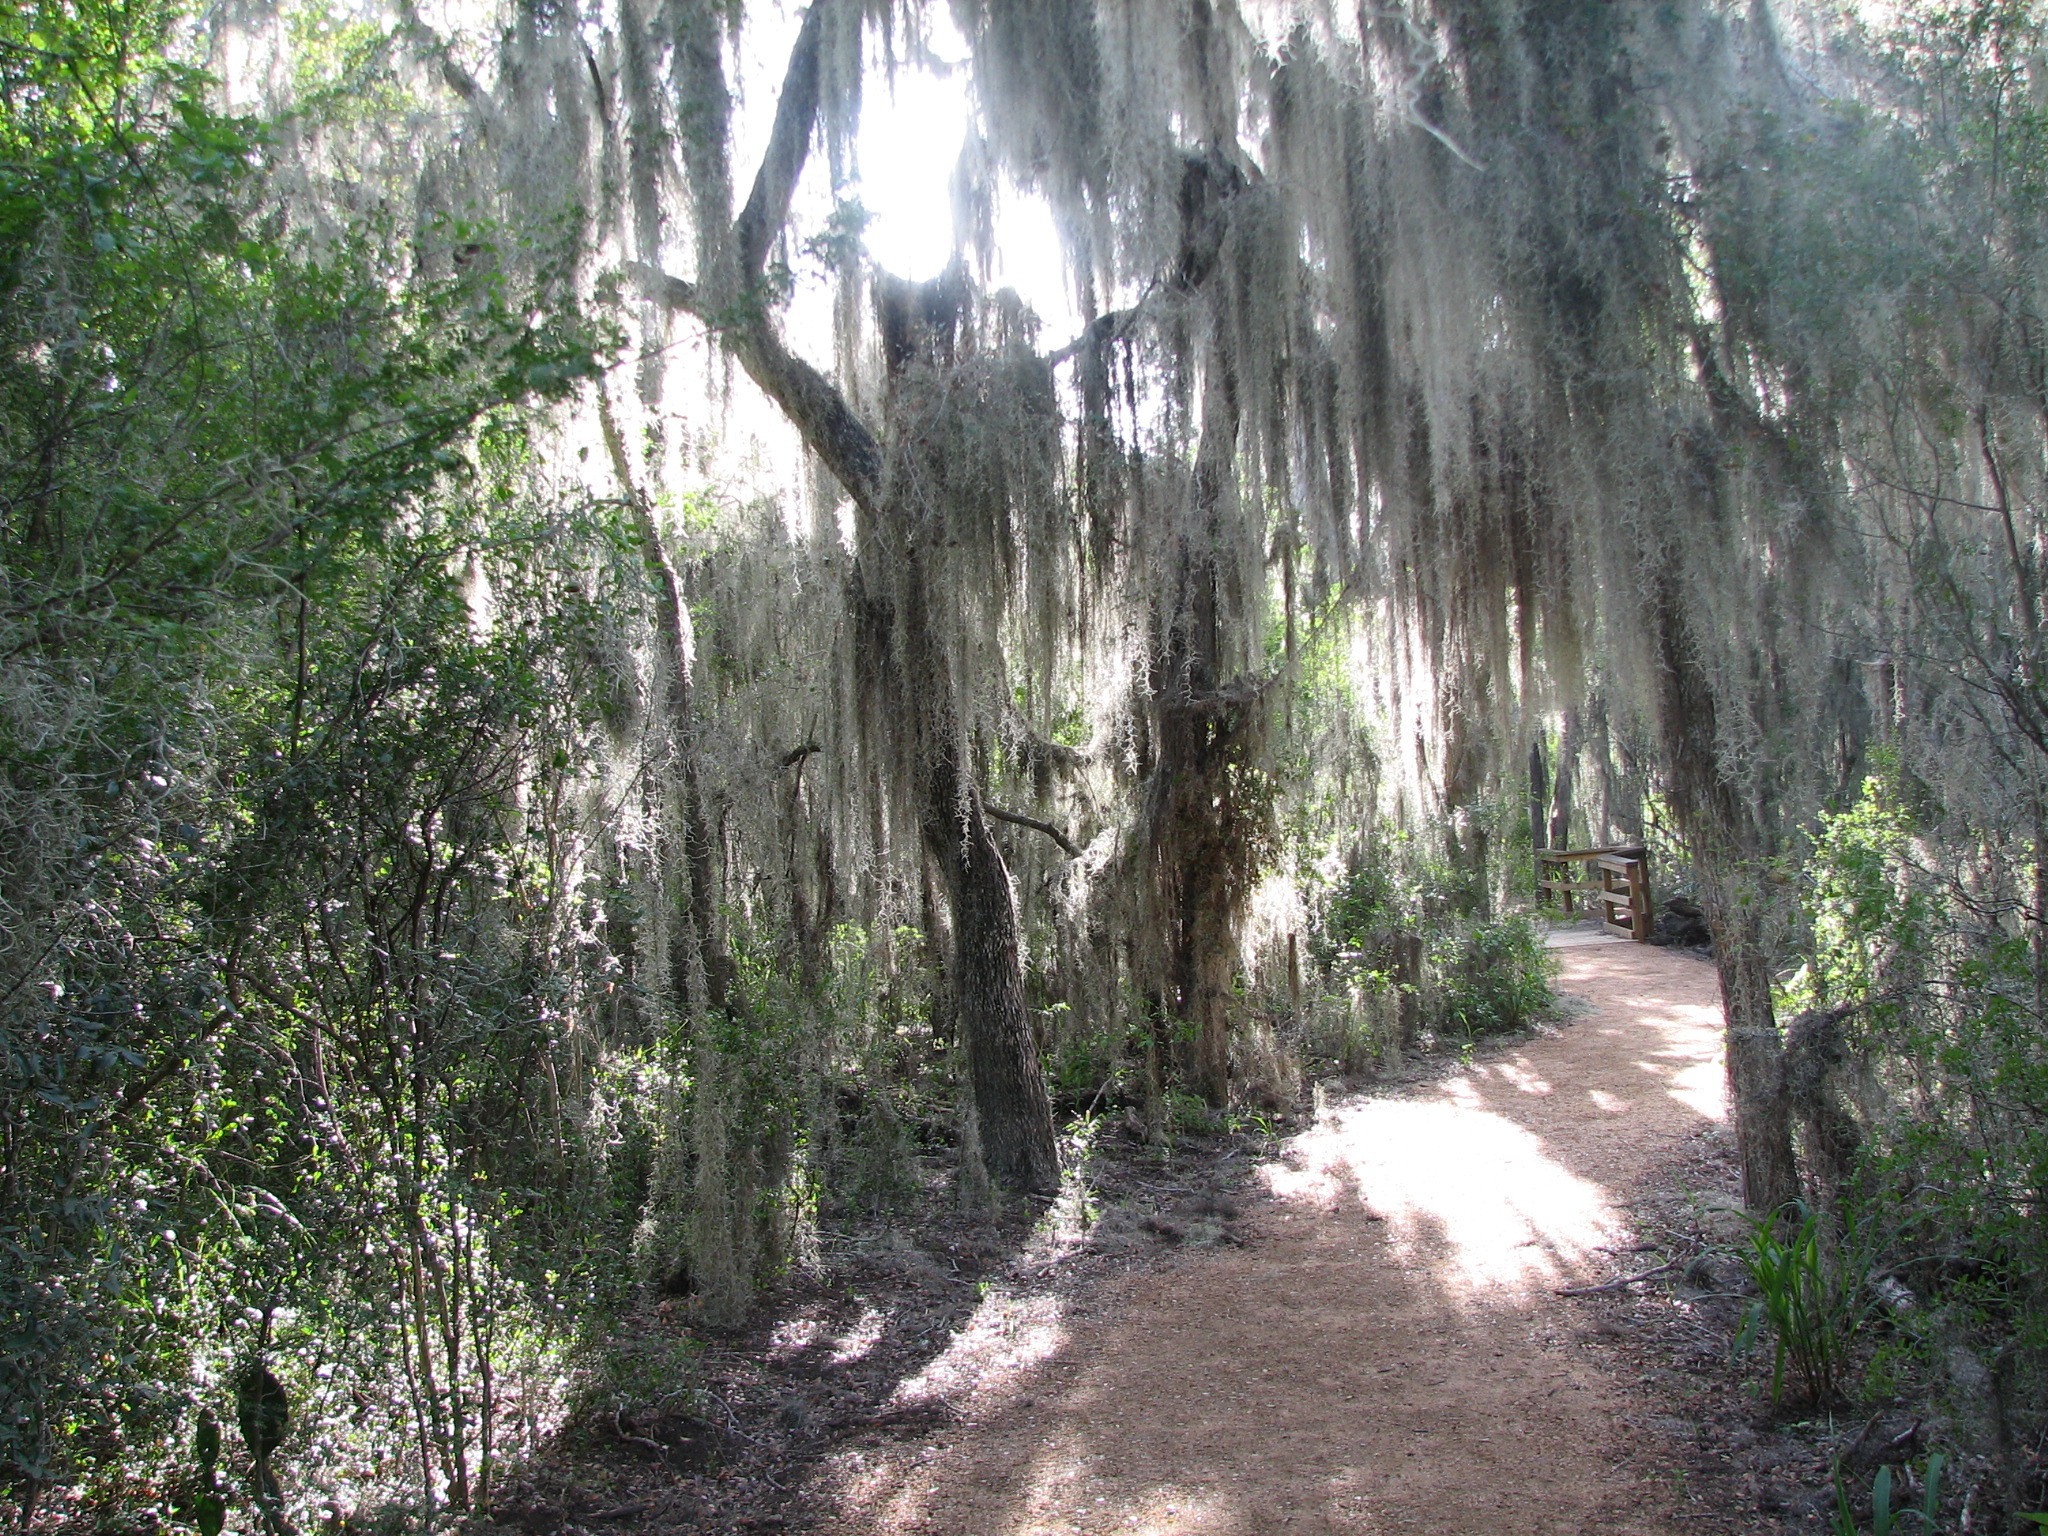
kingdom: Plantae
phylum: Tracheophyta
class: Liliopsida
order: Poales
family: Bromeliaceae
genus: Tillandsia
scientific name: Tillandsia usneoides
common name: Spanish moss
